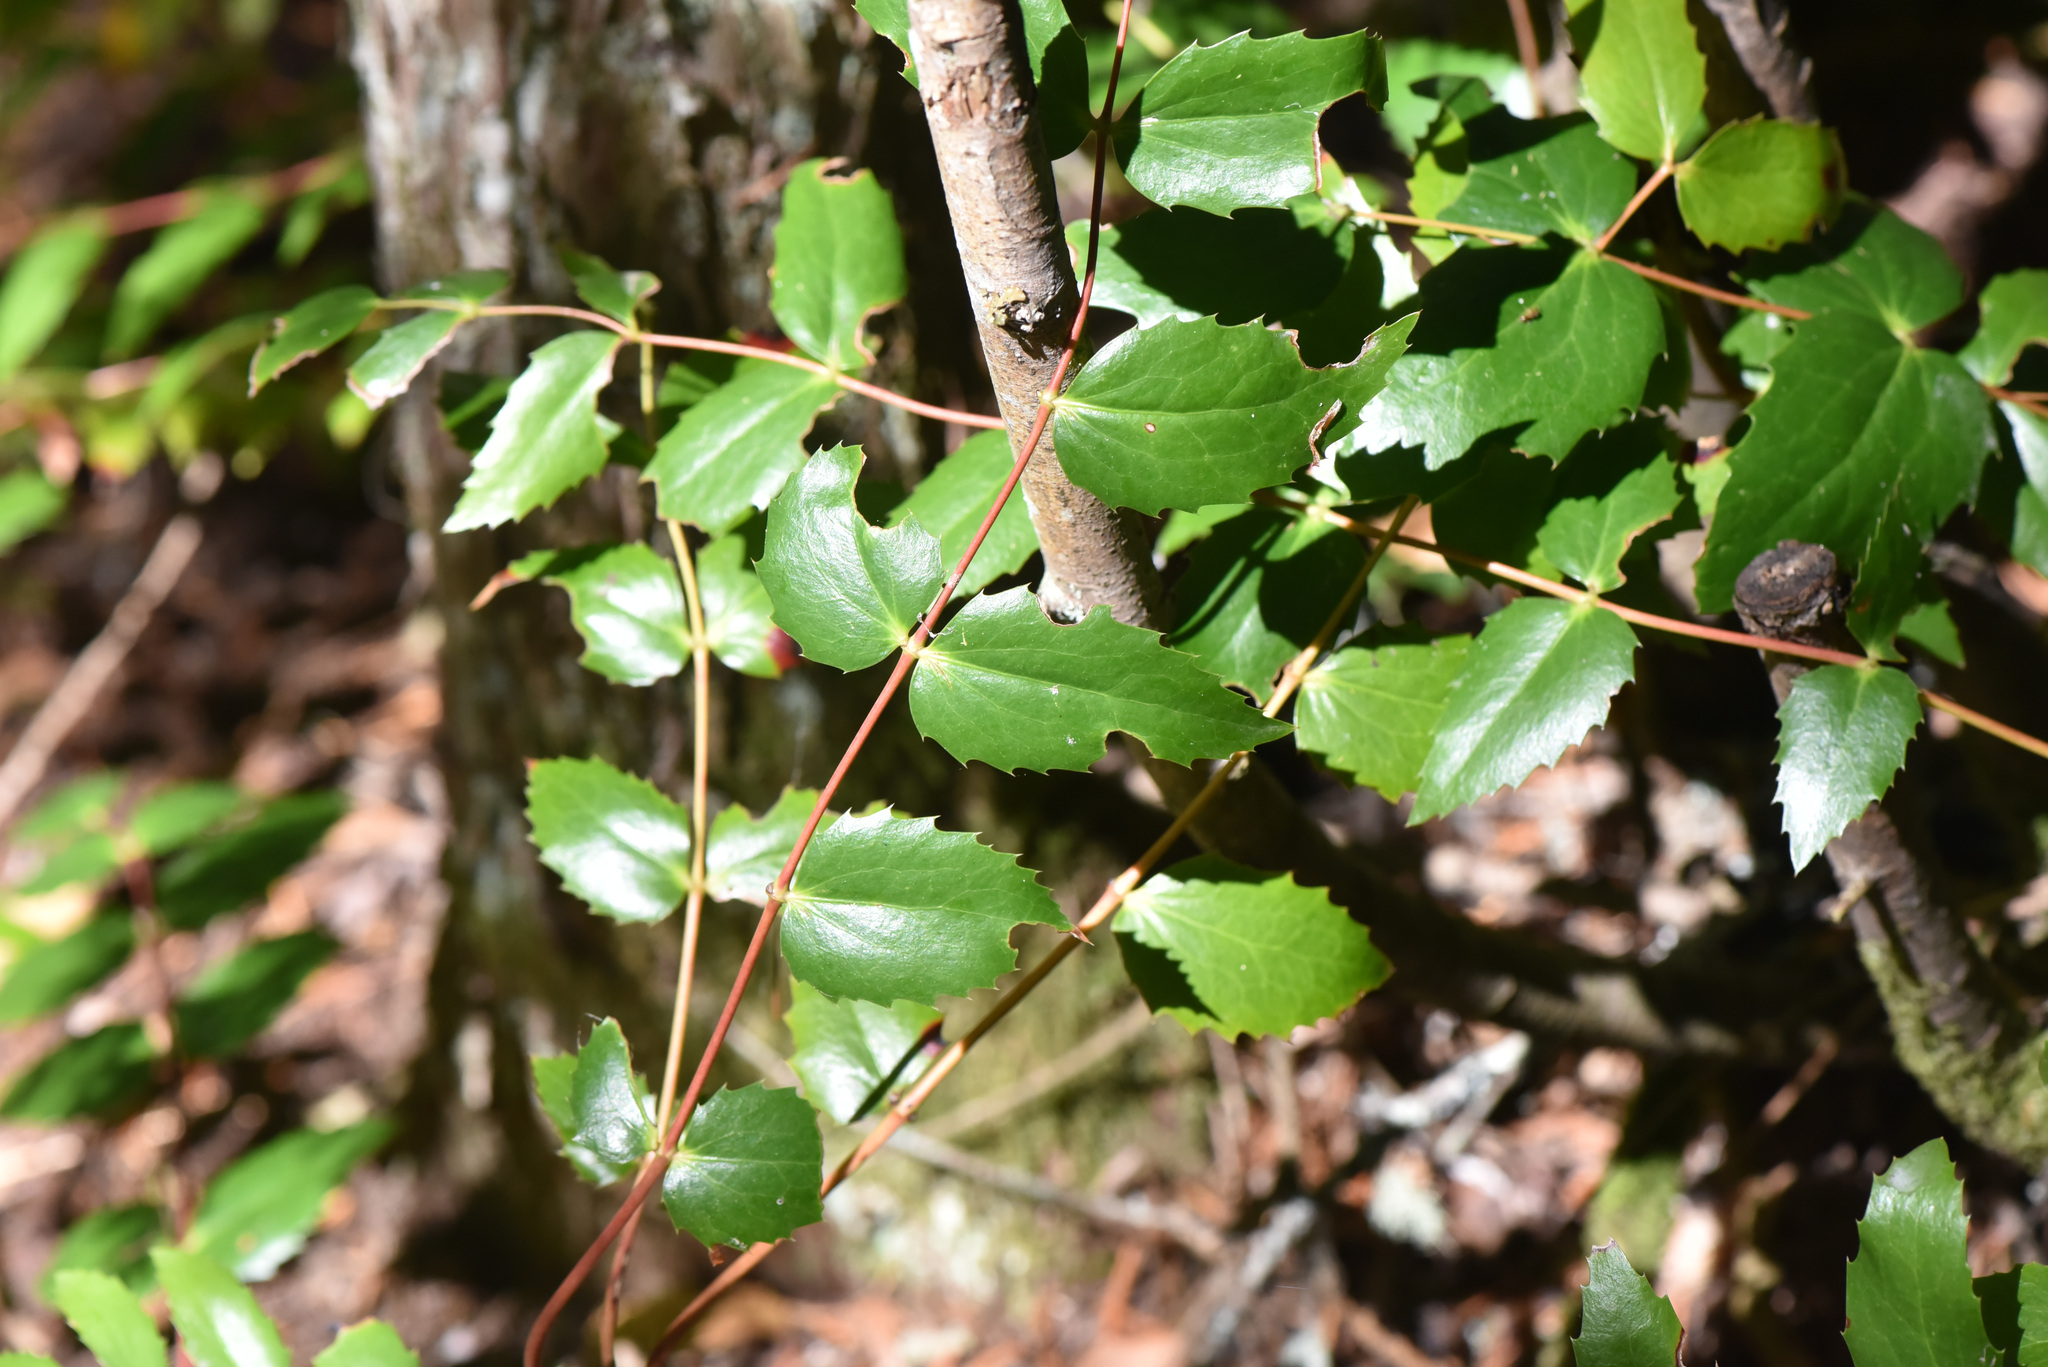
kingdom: Plantae
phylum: Tracheophyta
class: Magnoliopsida
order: Ranunculales
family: Berberidaceae
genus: Mahonia
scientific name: Mahonia nervosa
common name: Cascade oregon-grape
